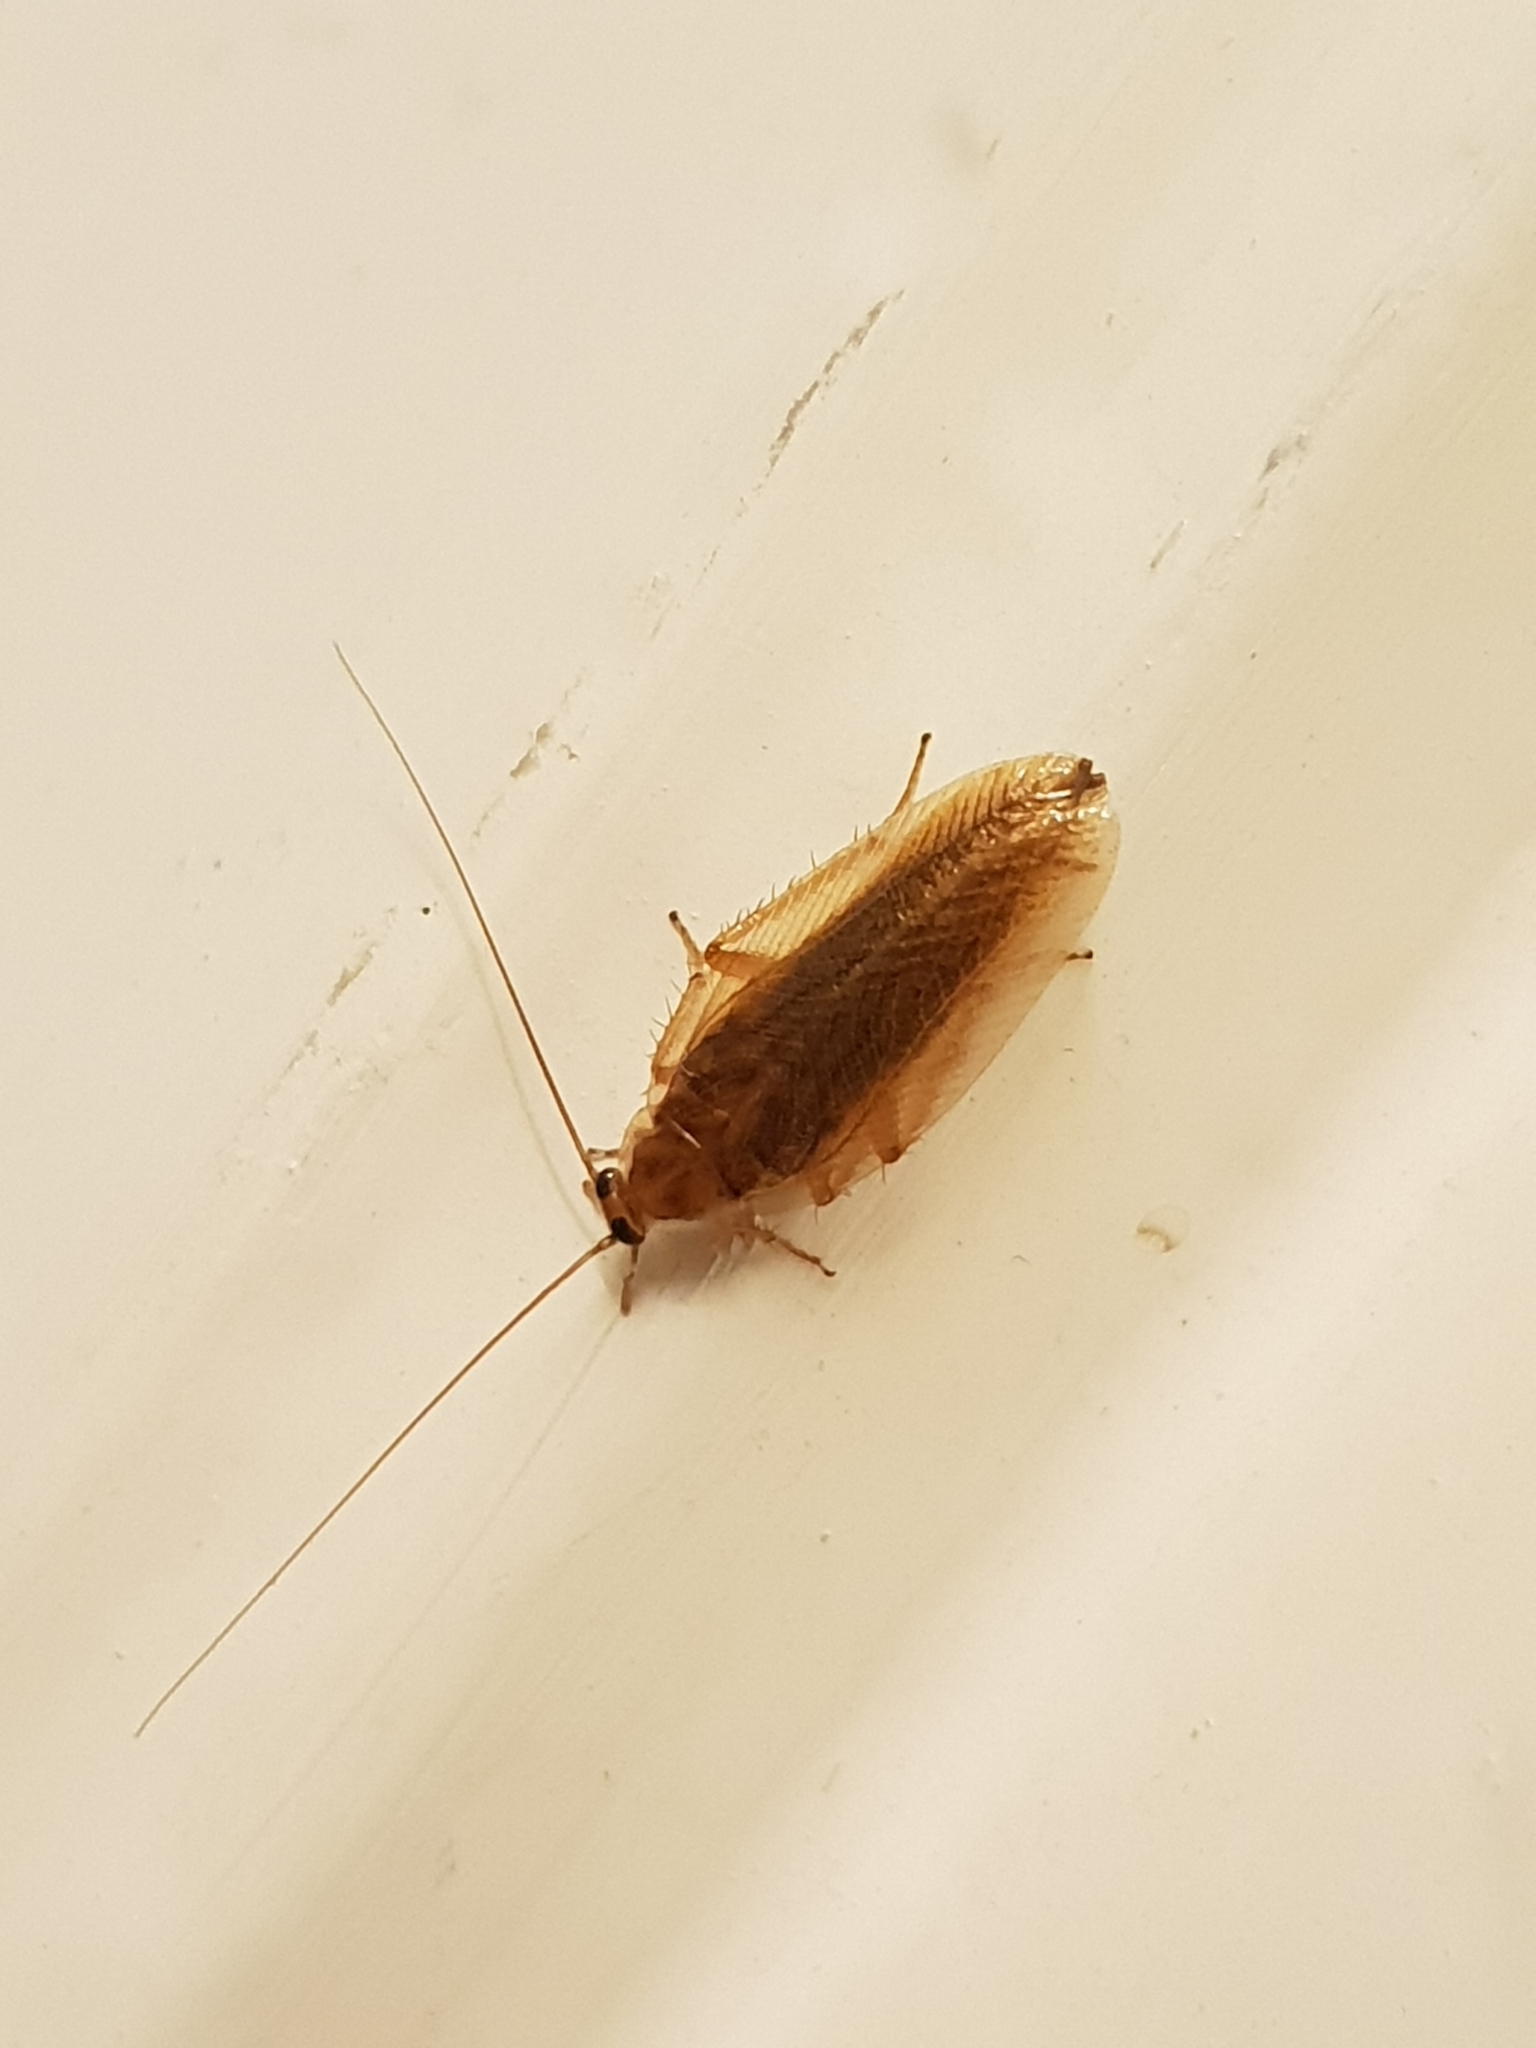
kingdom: Animalia
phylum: Arthropoda
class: Insecta
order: Blattodea
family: Ectobiidae
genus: Ectobius
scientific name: Ectobius vittiventris
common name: Garden cockroach
